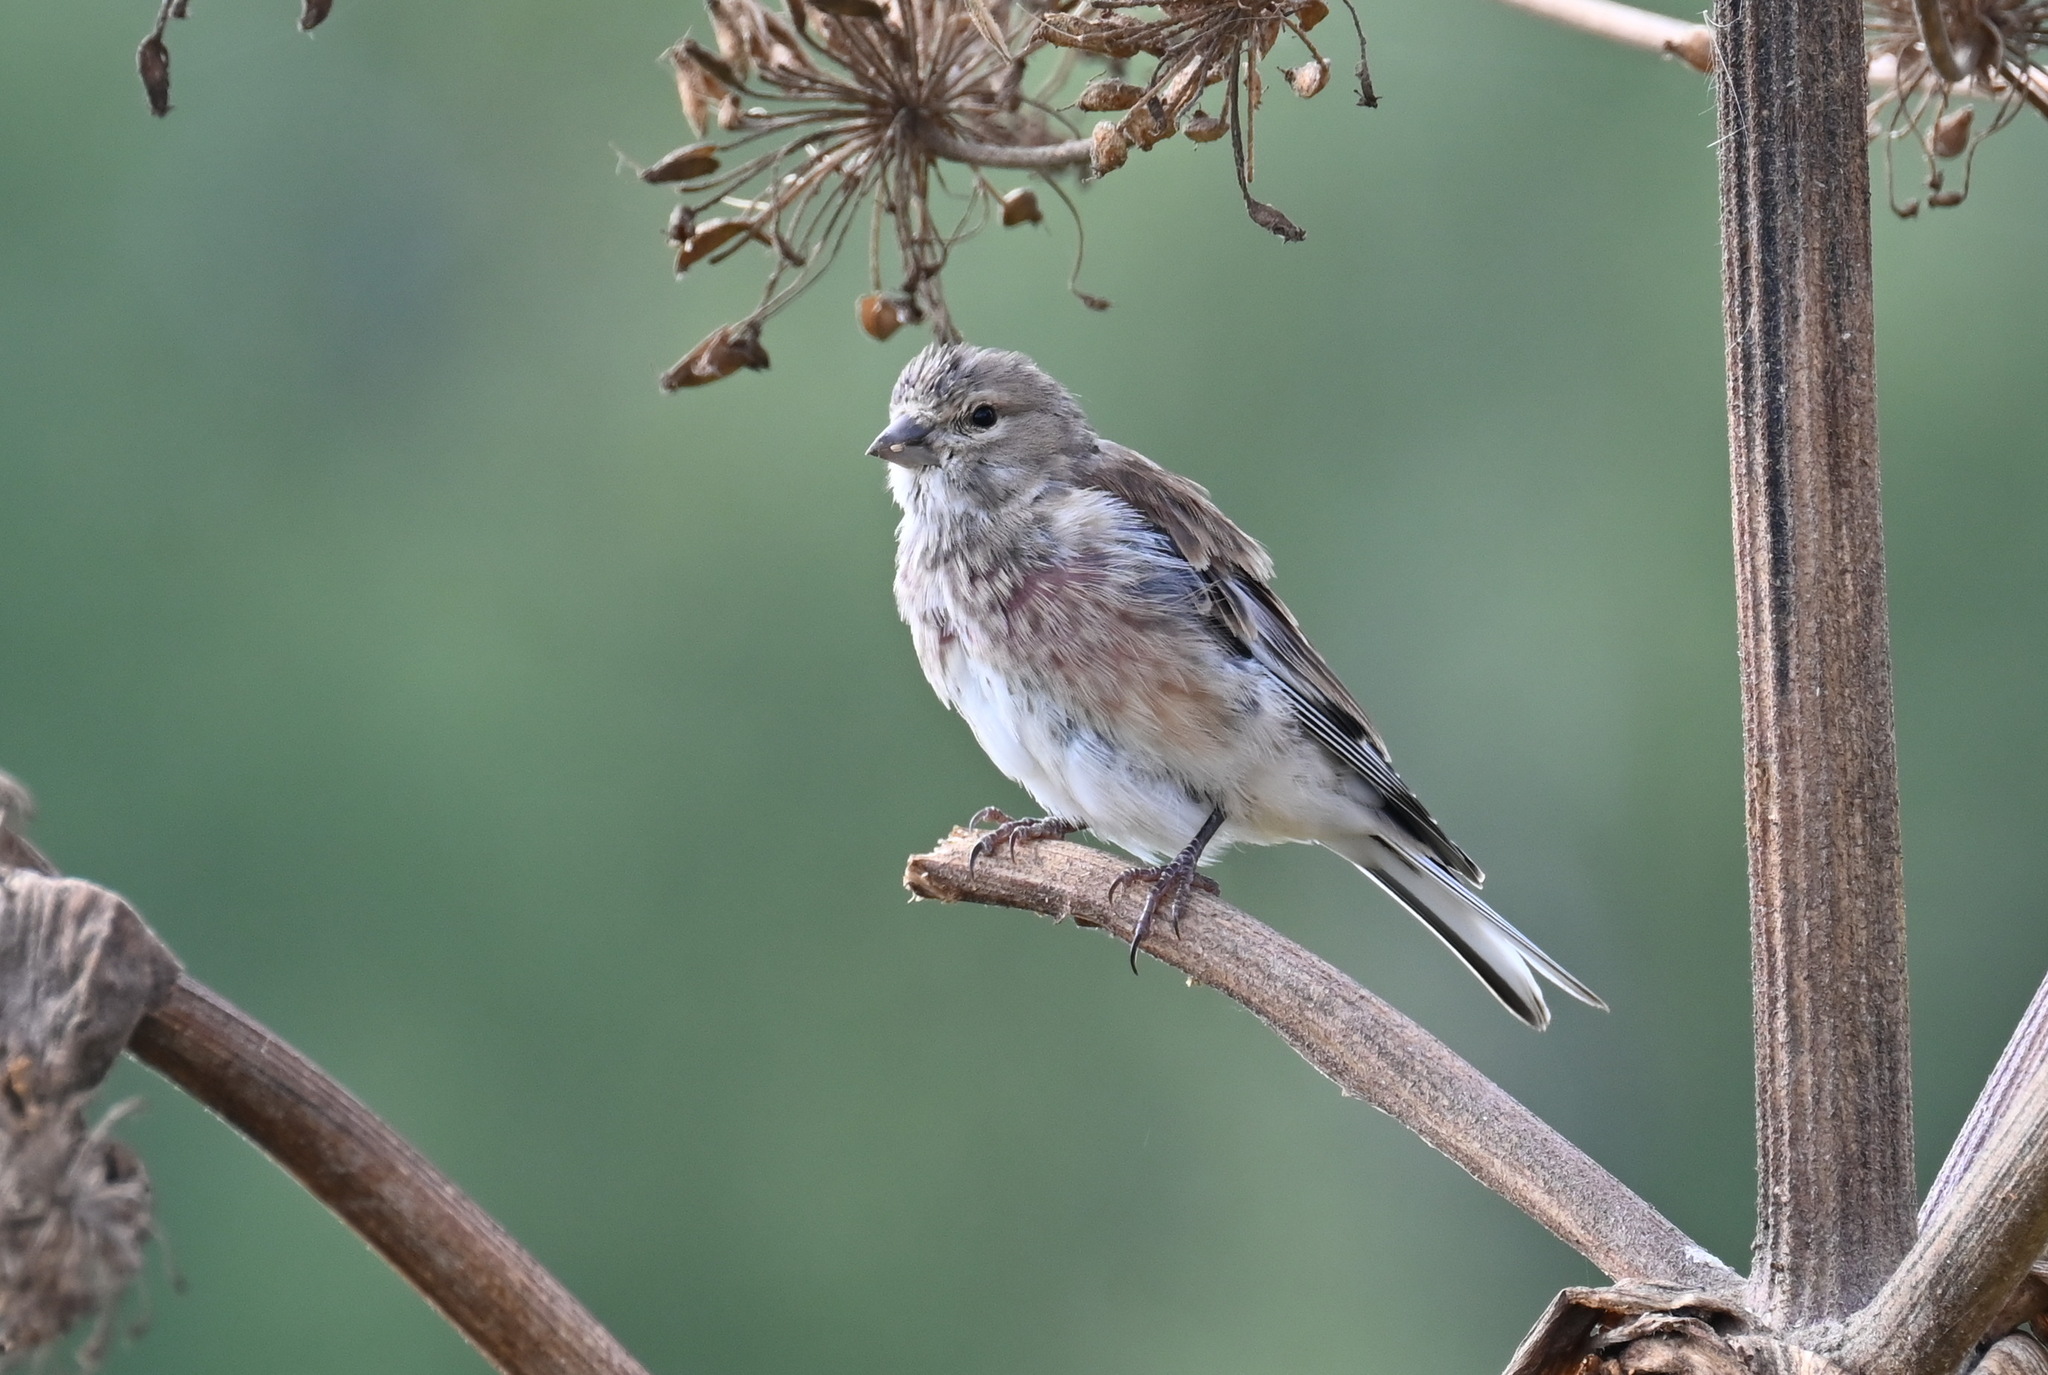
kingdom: Animalia
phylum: Chordata
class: Aves
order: Passeriformes
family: Fringillidae
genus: Linaria
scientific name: Linaria cannabina
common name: Common linnet
